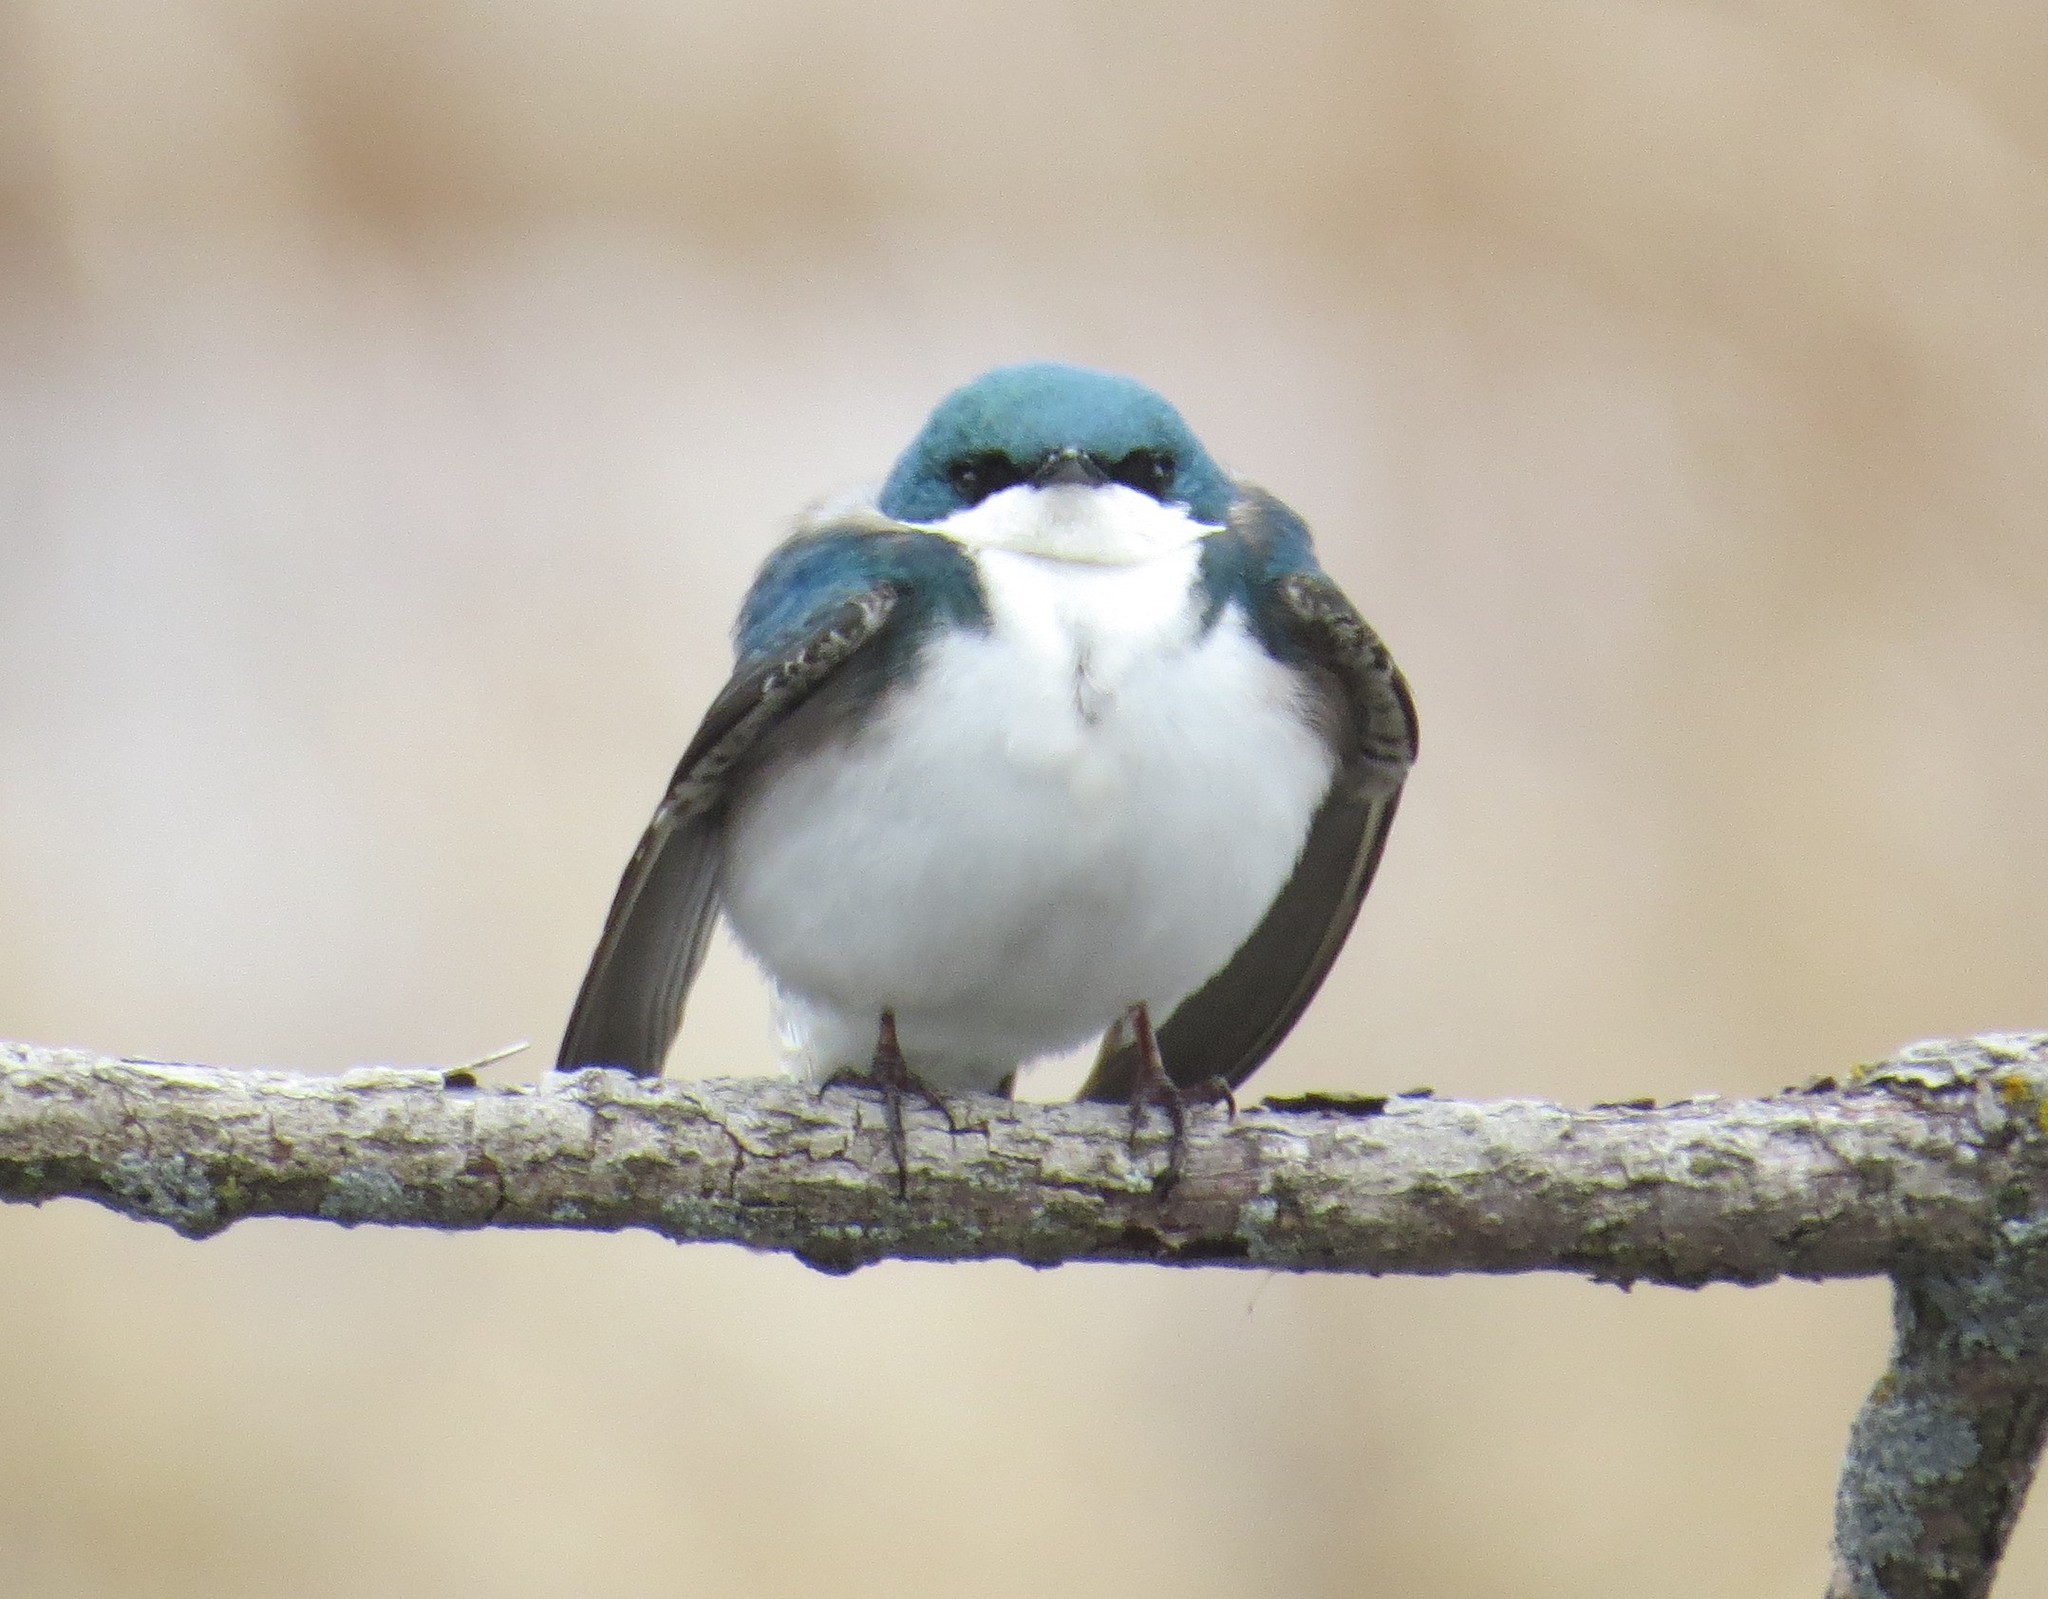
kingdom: Animalia
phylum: Chordata
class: Aves
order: Passeriformes
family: Hirundinidae
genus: Tachycineta
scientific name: Tachycineta bicolor
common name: Tree swallow
